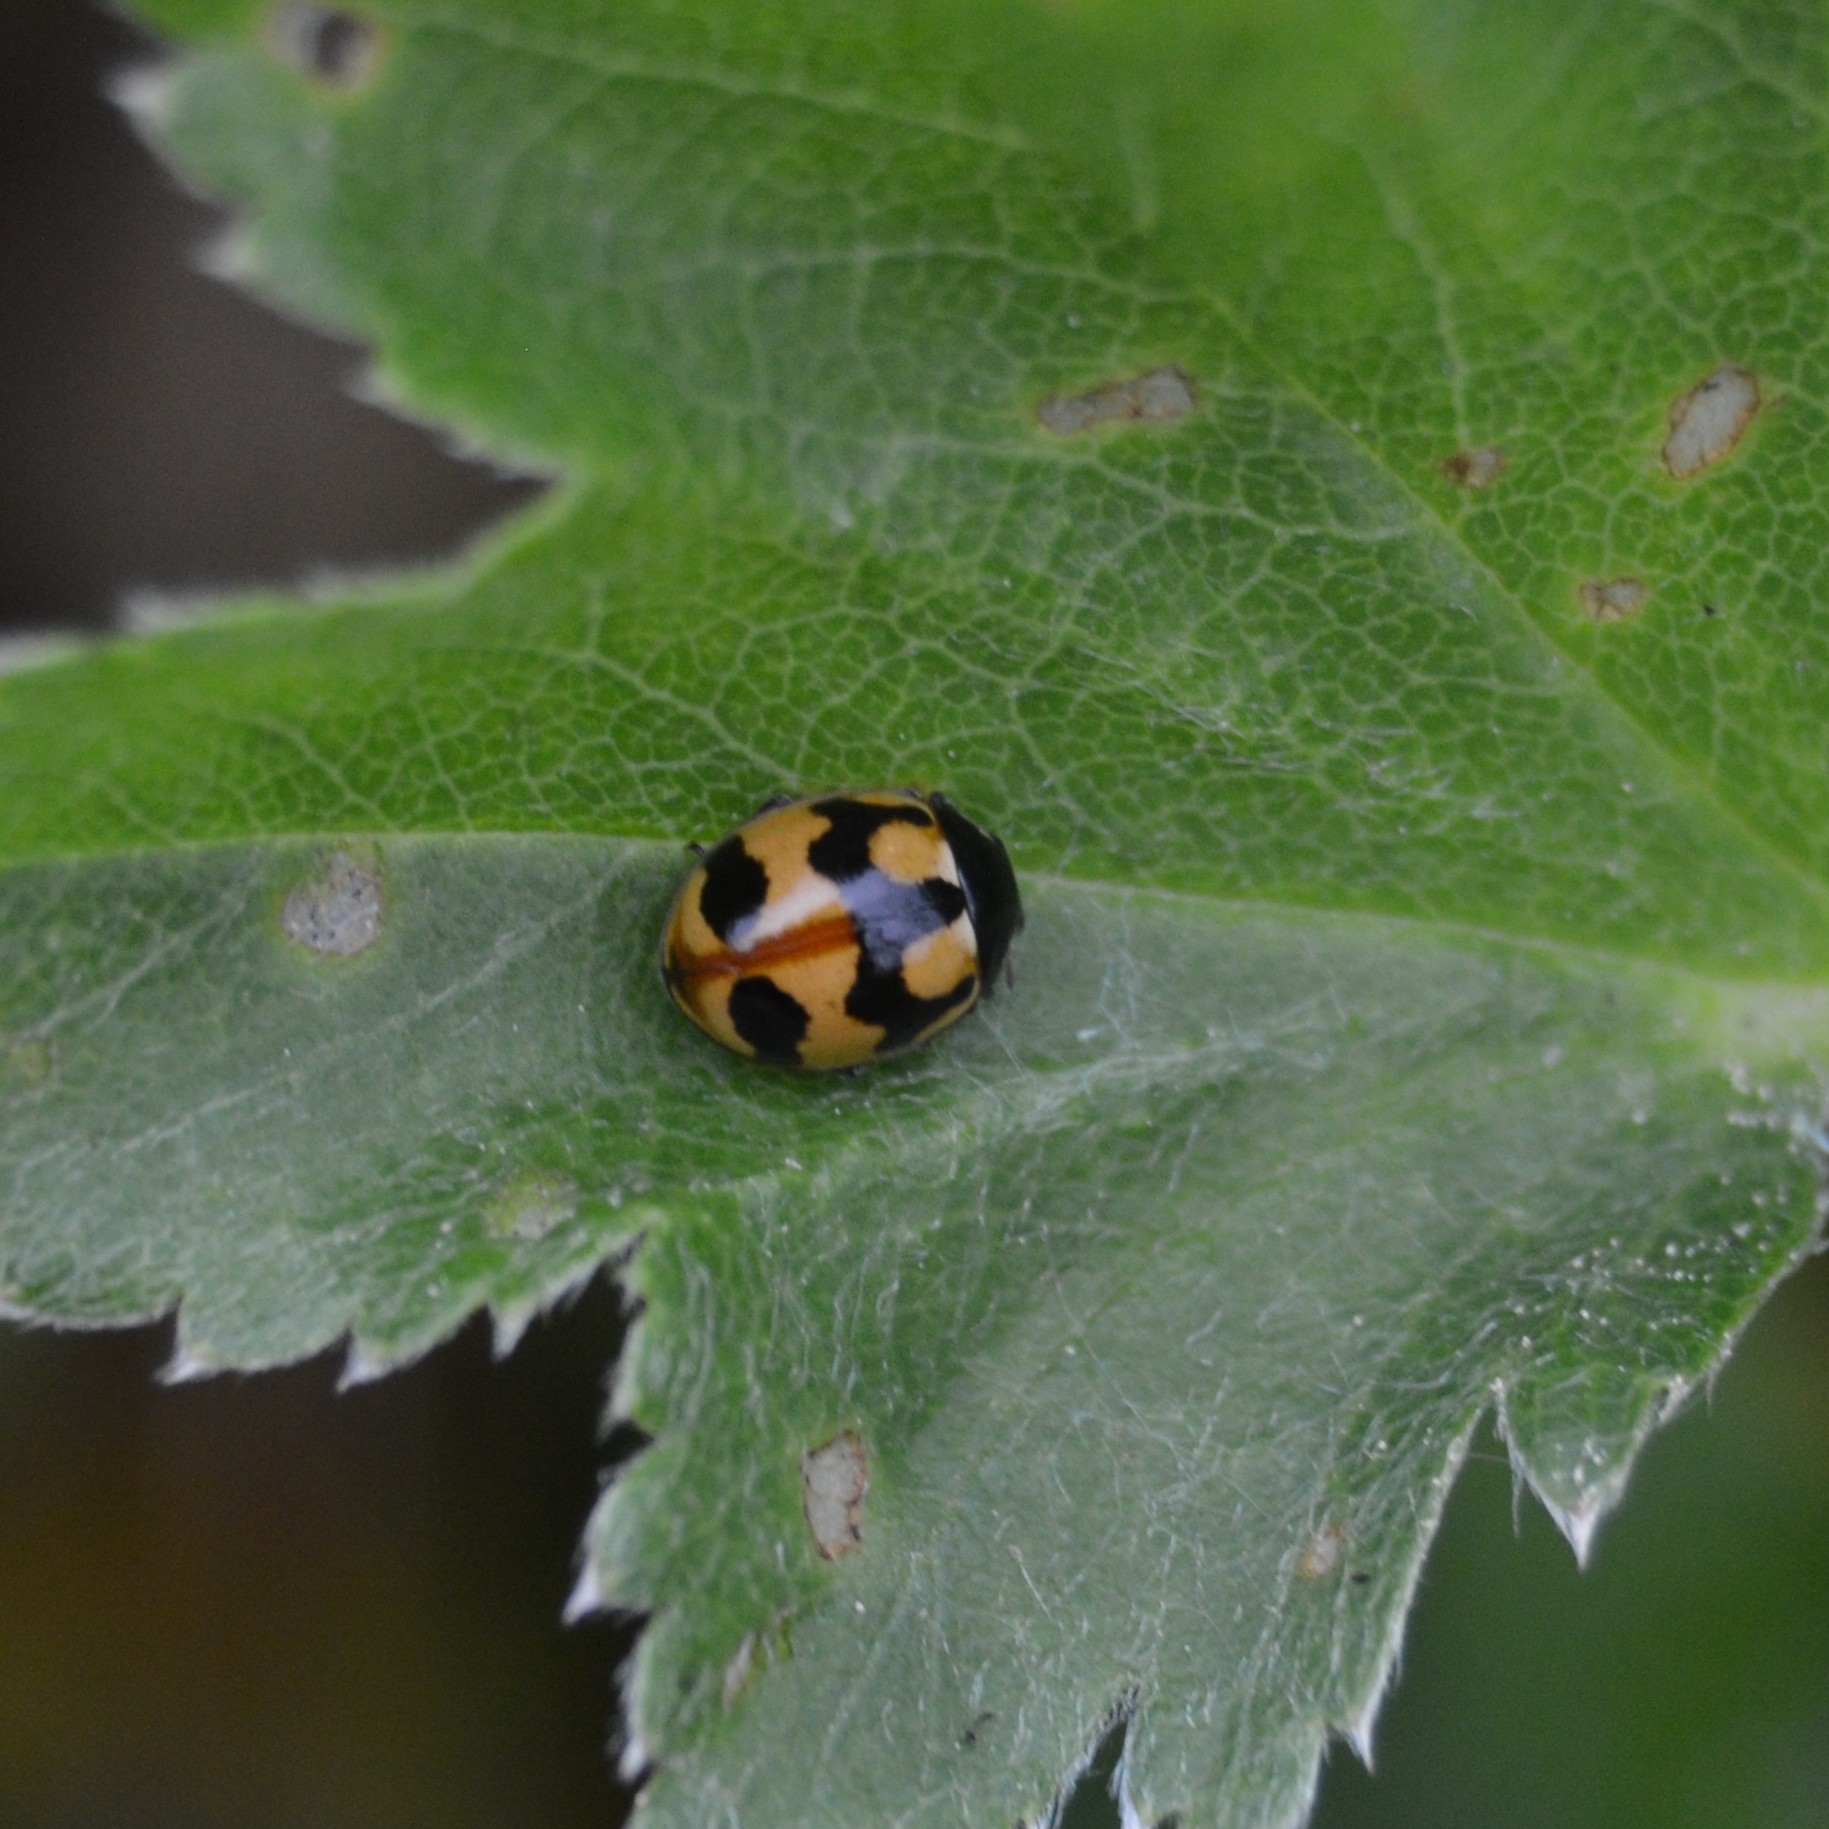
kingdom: Animalia
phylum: Arthropoda
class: Insecta
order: Coleoptera
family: Coccinellidae
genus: Coccinella
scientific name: Coccinella hieroglyphica
